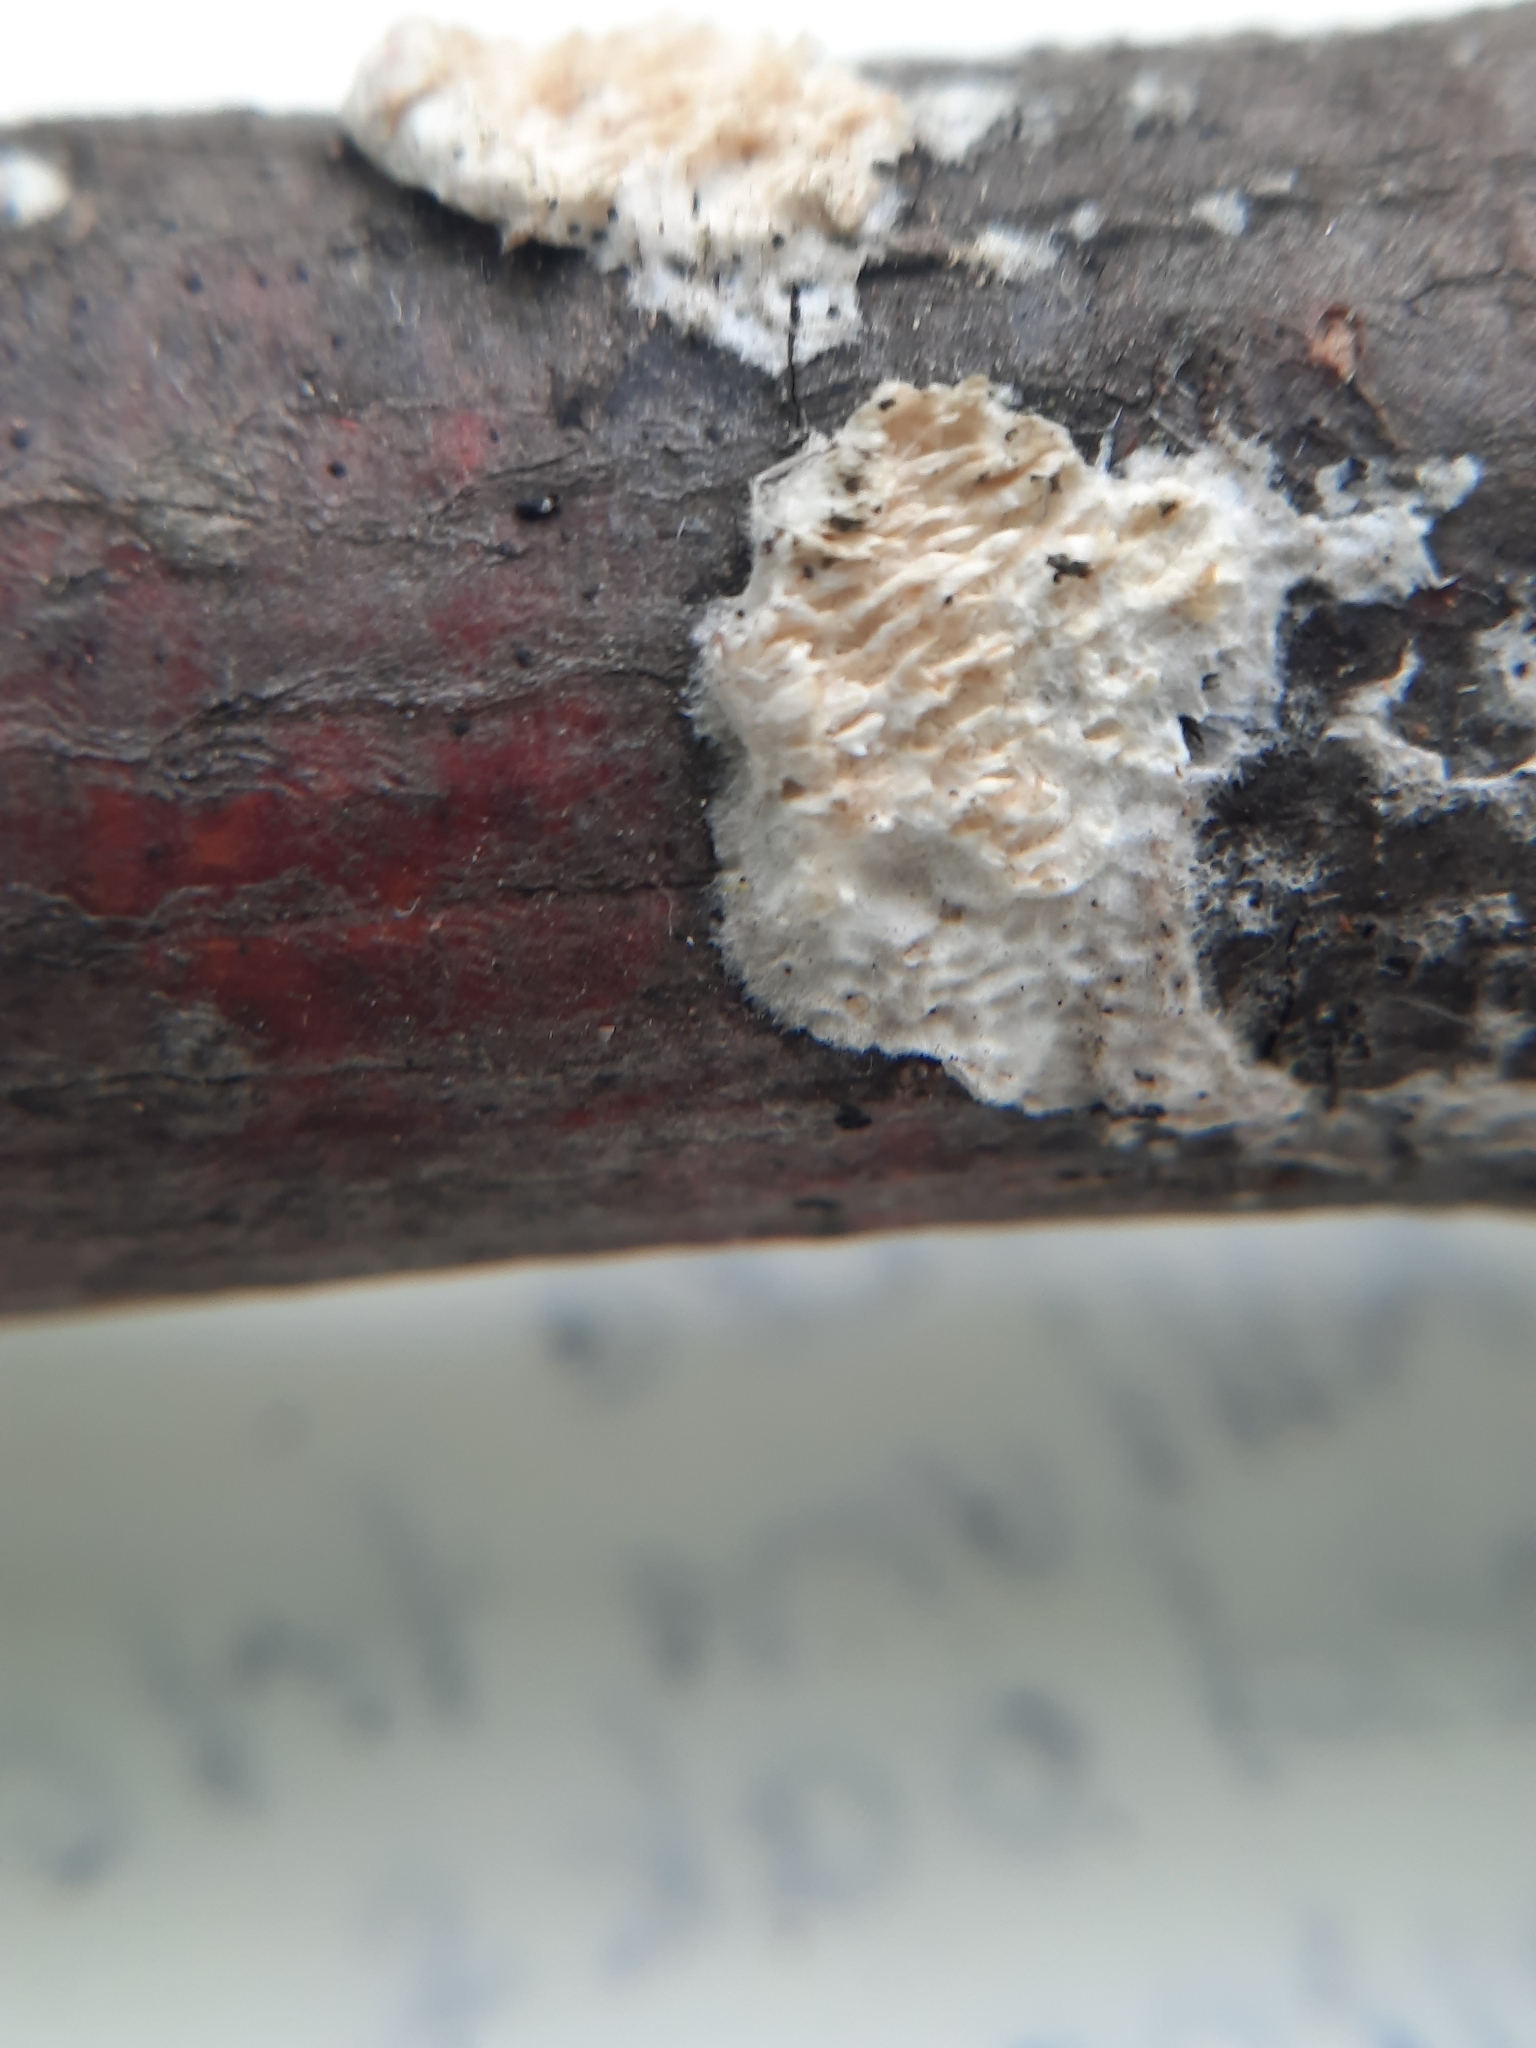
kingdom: Fungi
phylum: Basidiomycota
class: Agaricomycetes
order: Polyporales
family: Irpicaceae
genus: Irpex
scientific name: Irpex lacteus
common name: Milk-white toothed polypore
